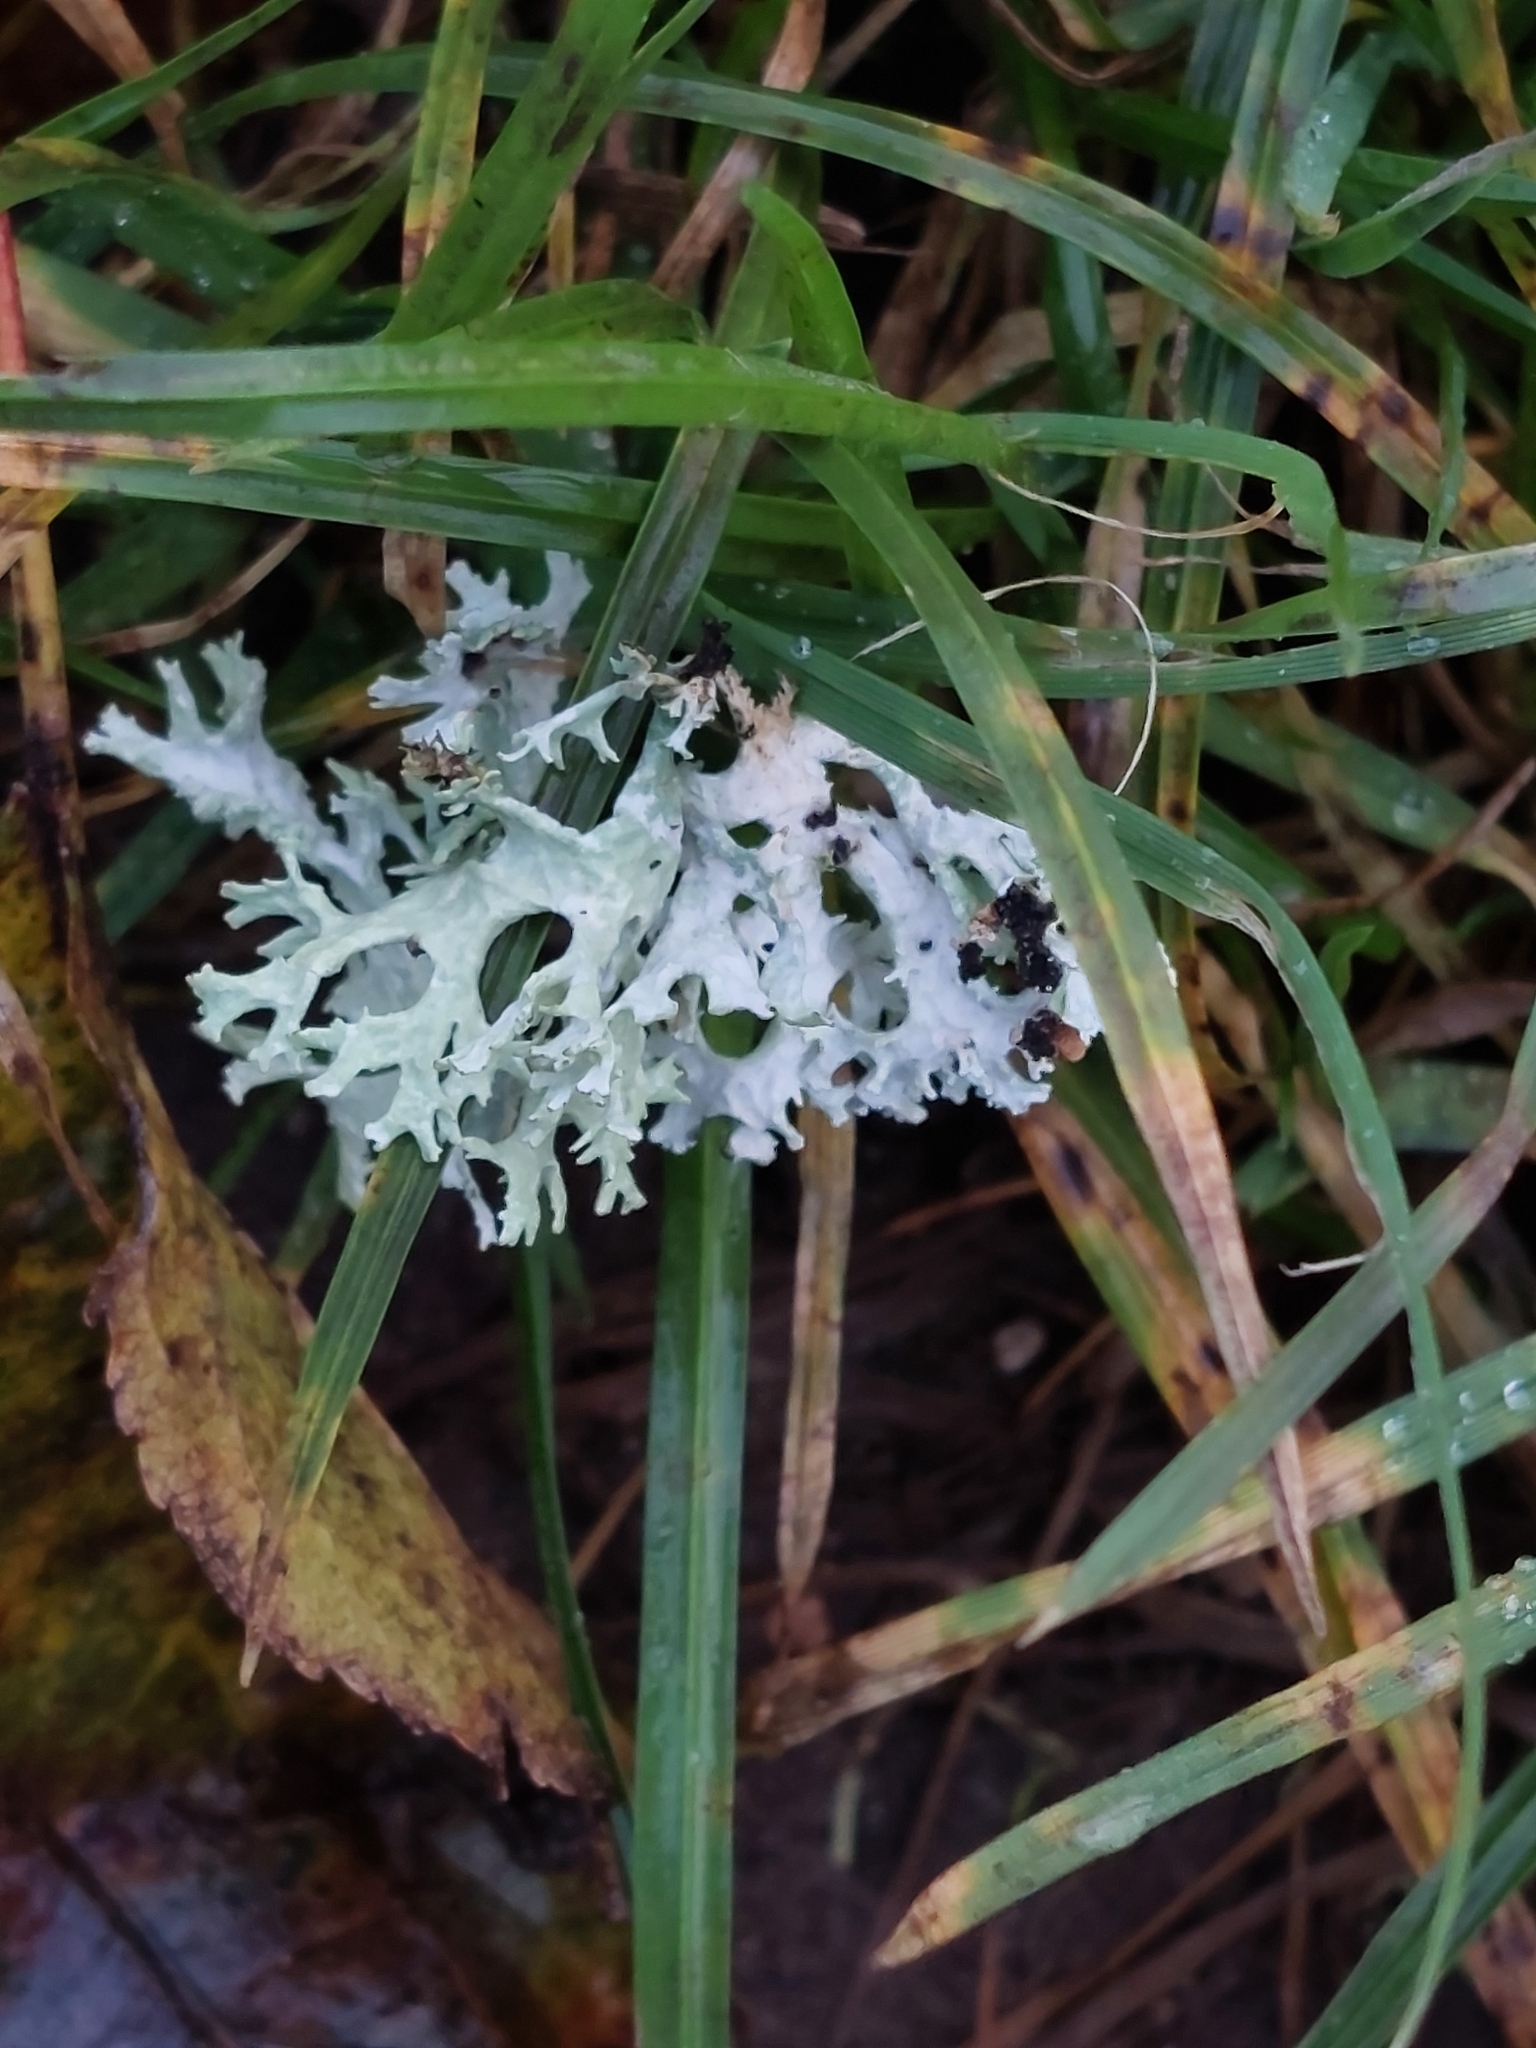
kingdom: Fungi
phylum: Ascomycota
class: Lecanoromycetes
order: Lecanorales
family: Parmeliaceae
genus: Evernia
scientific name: Evernia prunastri
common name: Oak moss
